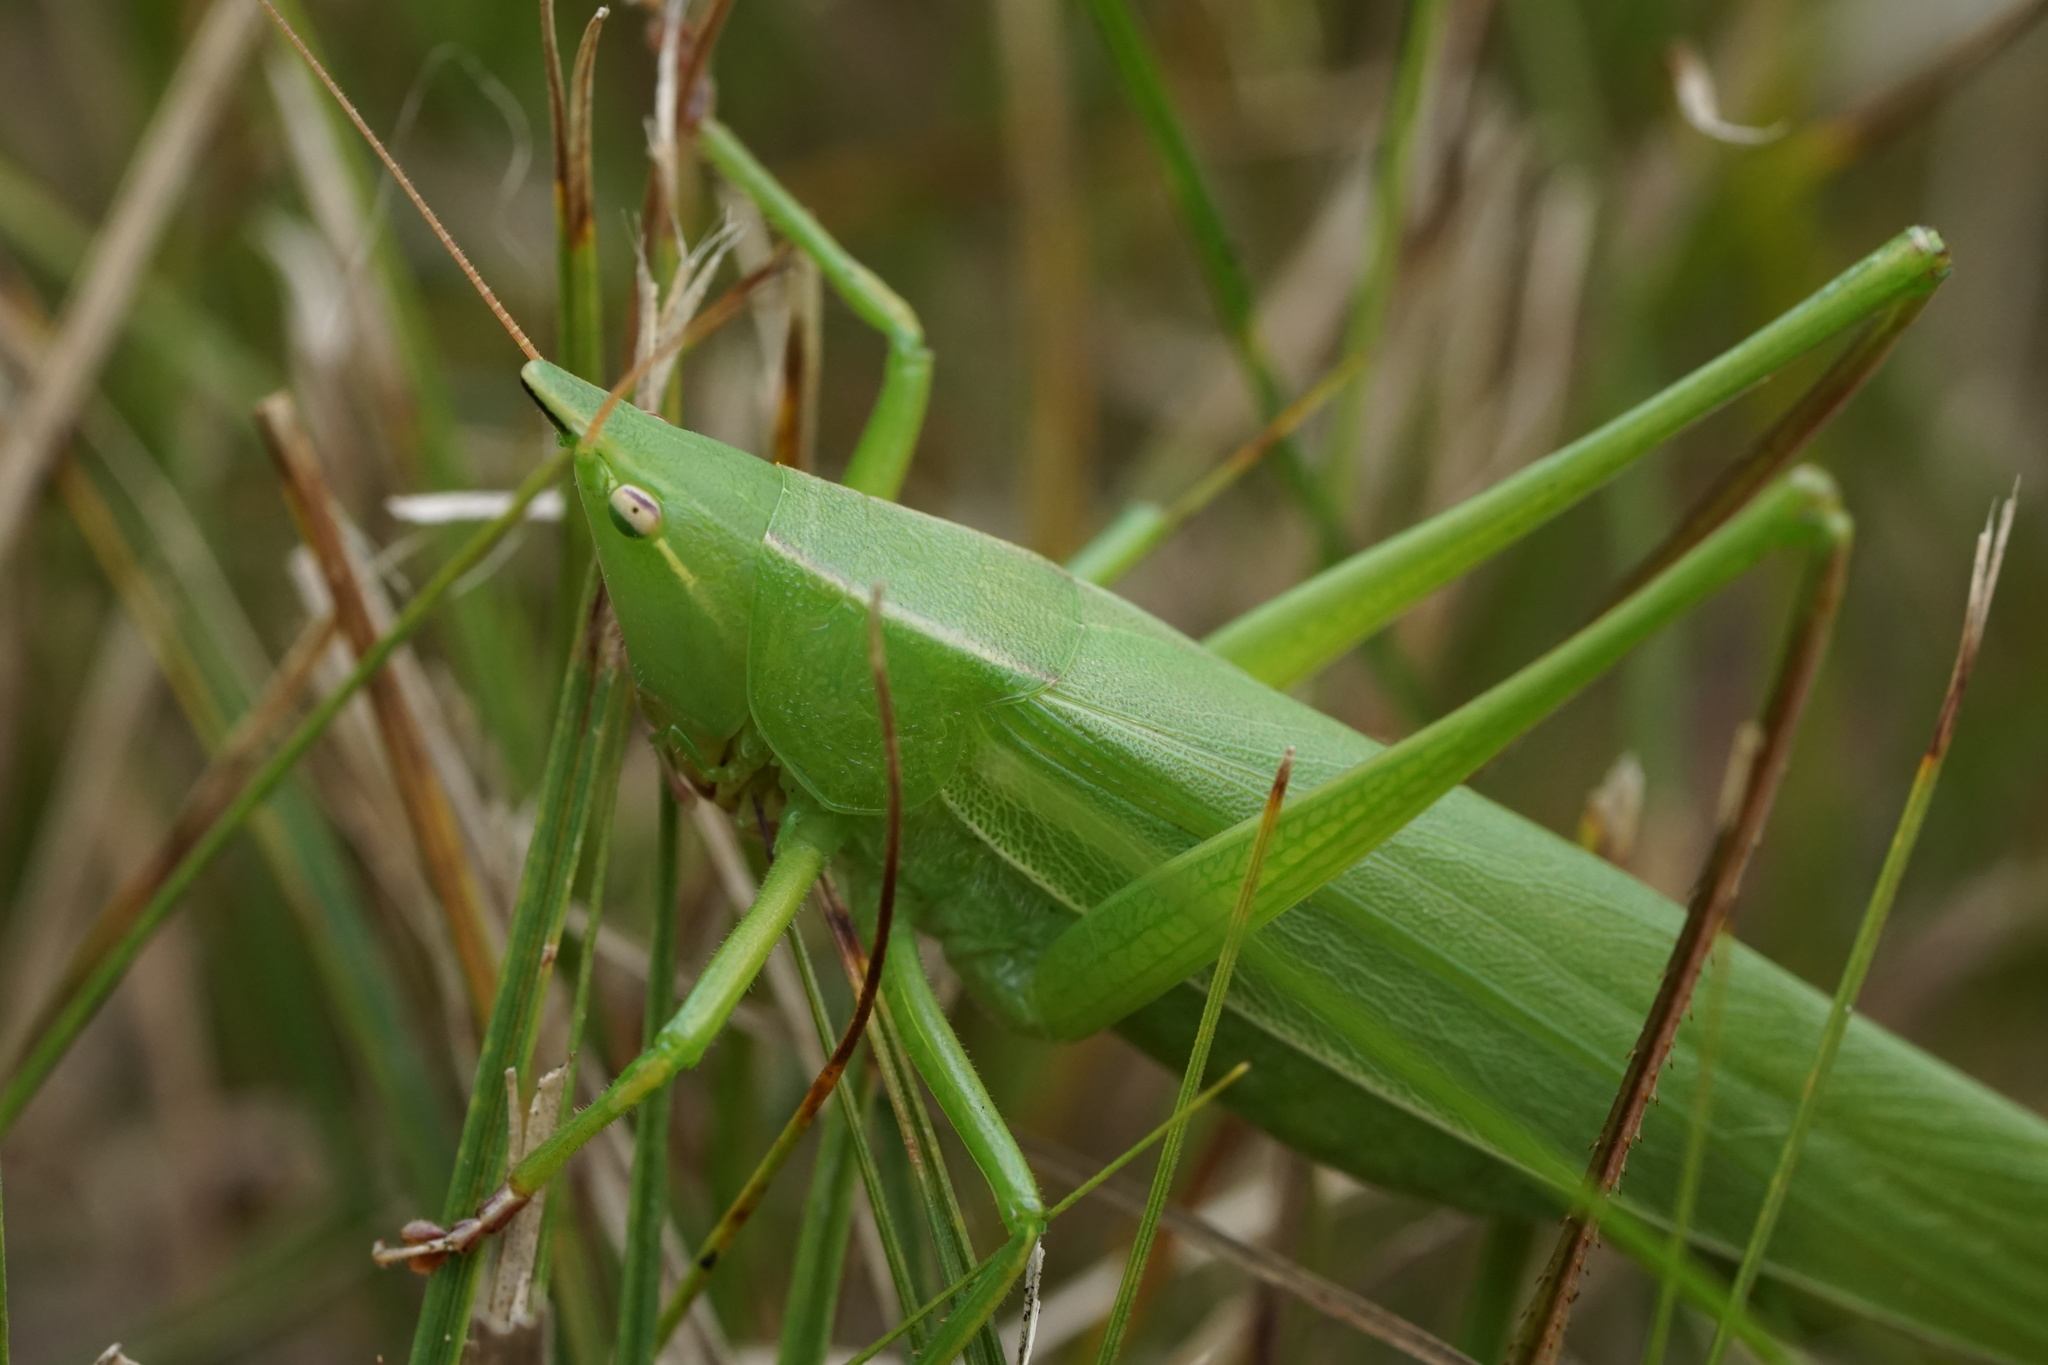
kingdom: Animalia
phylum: Arthropoda
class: Insecta
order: Orthoptera
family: Tettigoniidae
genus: Neoconocephalus
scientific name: Neoconocephalus ensiger
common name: Swordbearer
